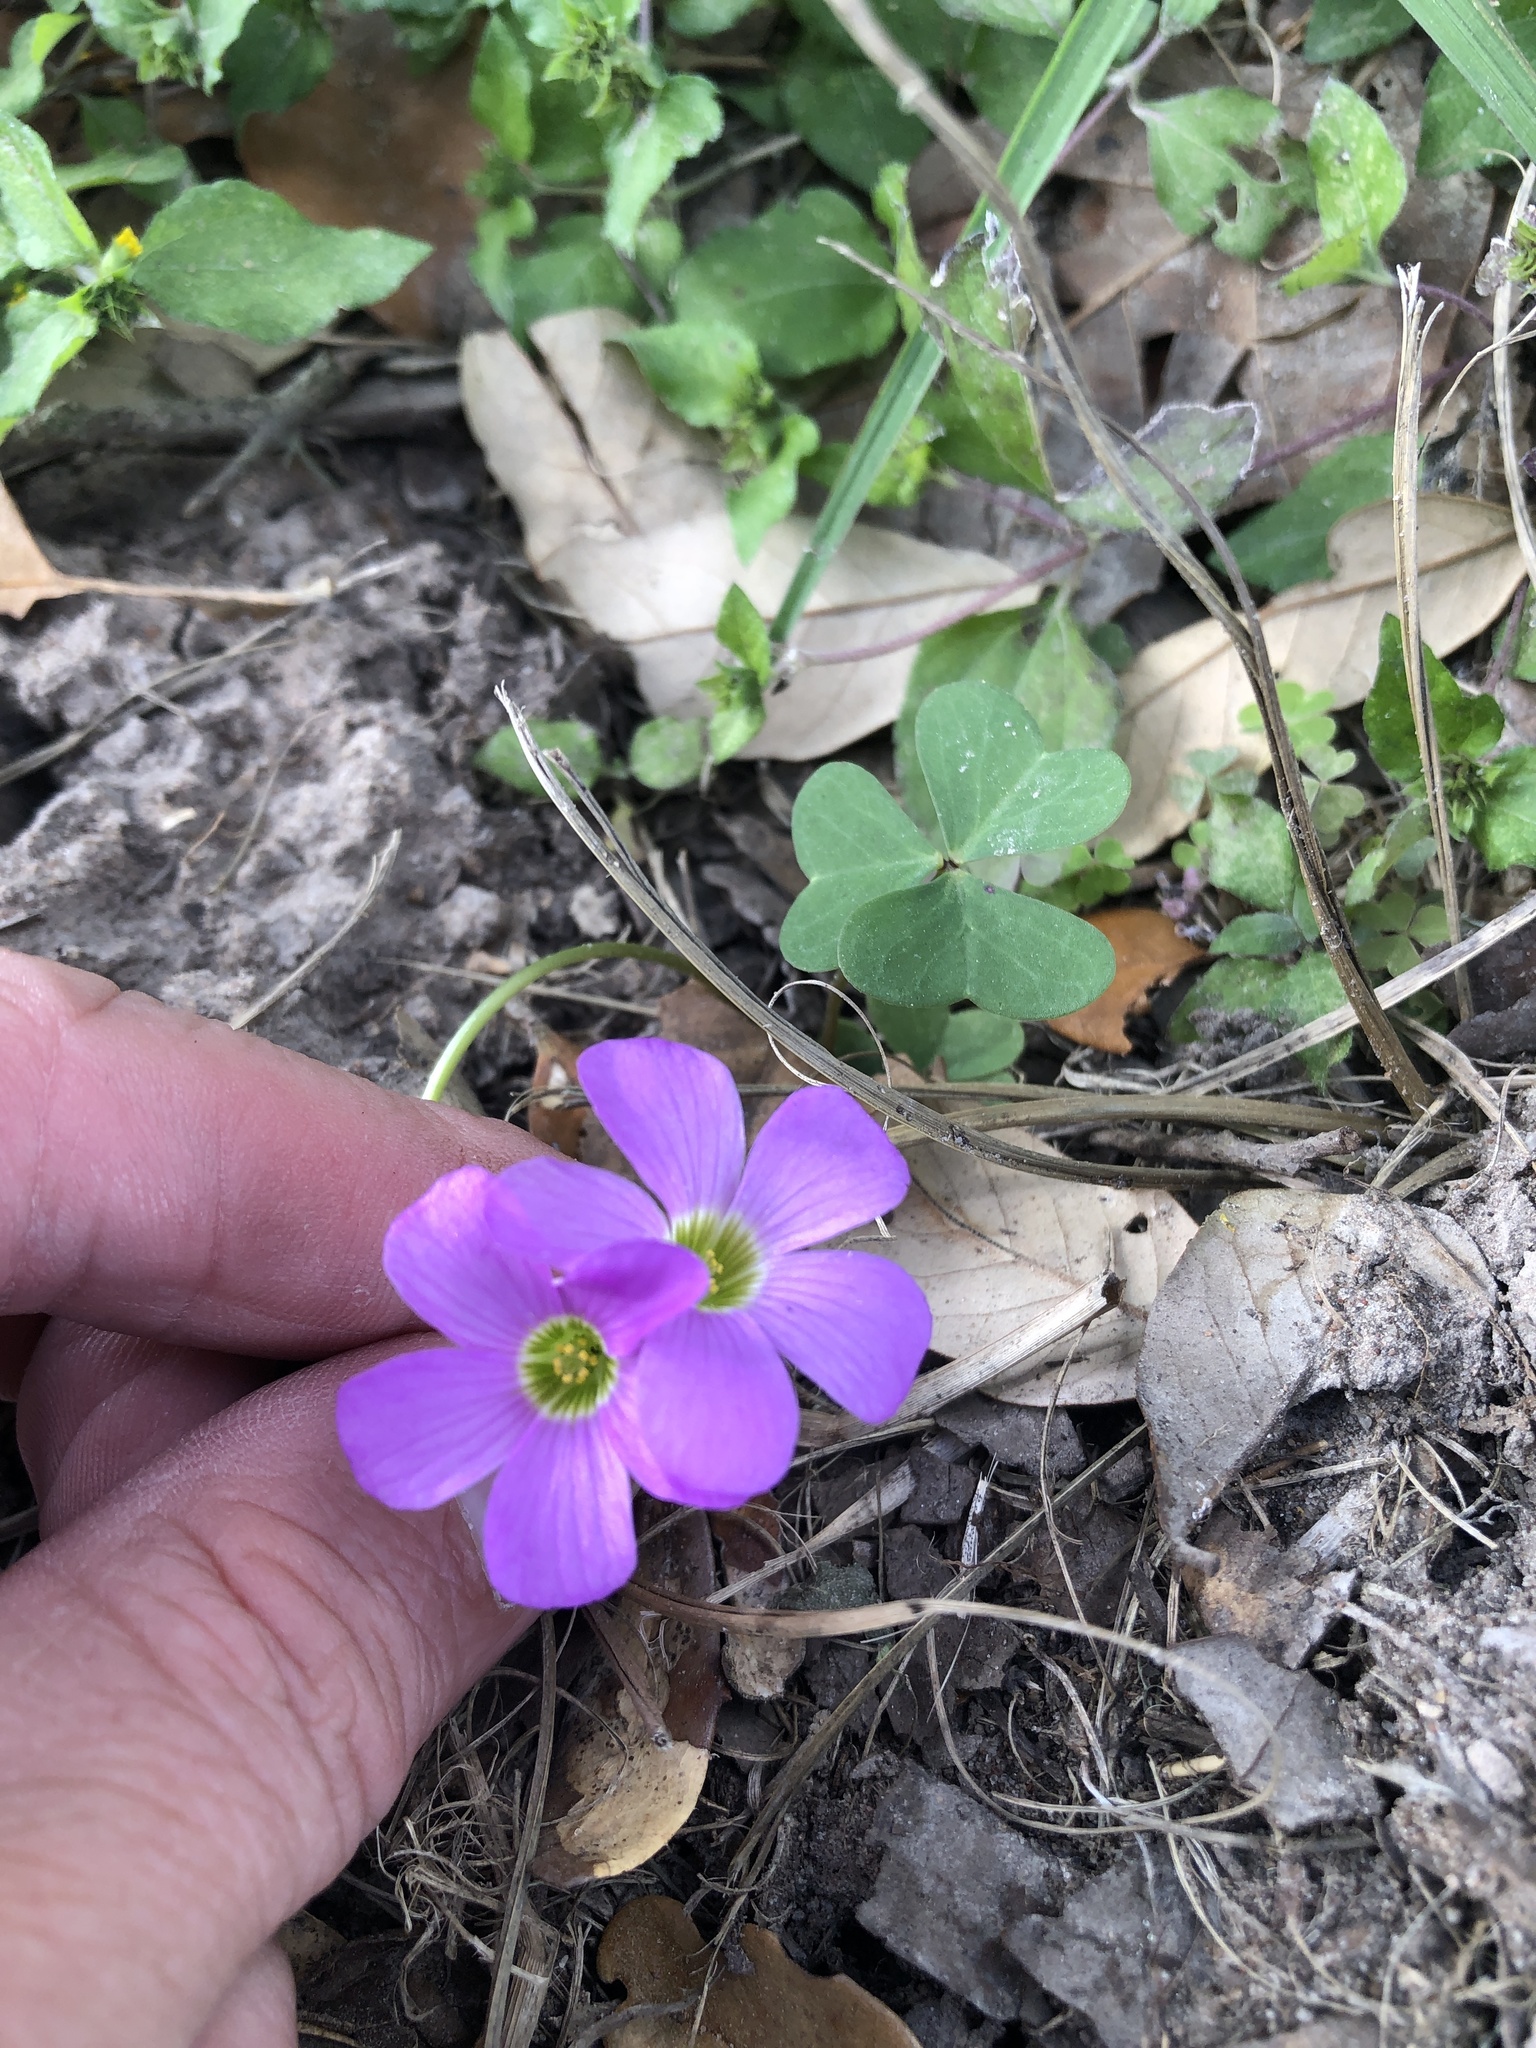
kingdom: Plantae
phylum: Tracheophyta
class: Magnoliopsida
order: Oxalidales
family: Oxalidaceae
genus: Oxalis
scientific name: Oxalis debilis
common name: Large-flowered pink-sorrel
